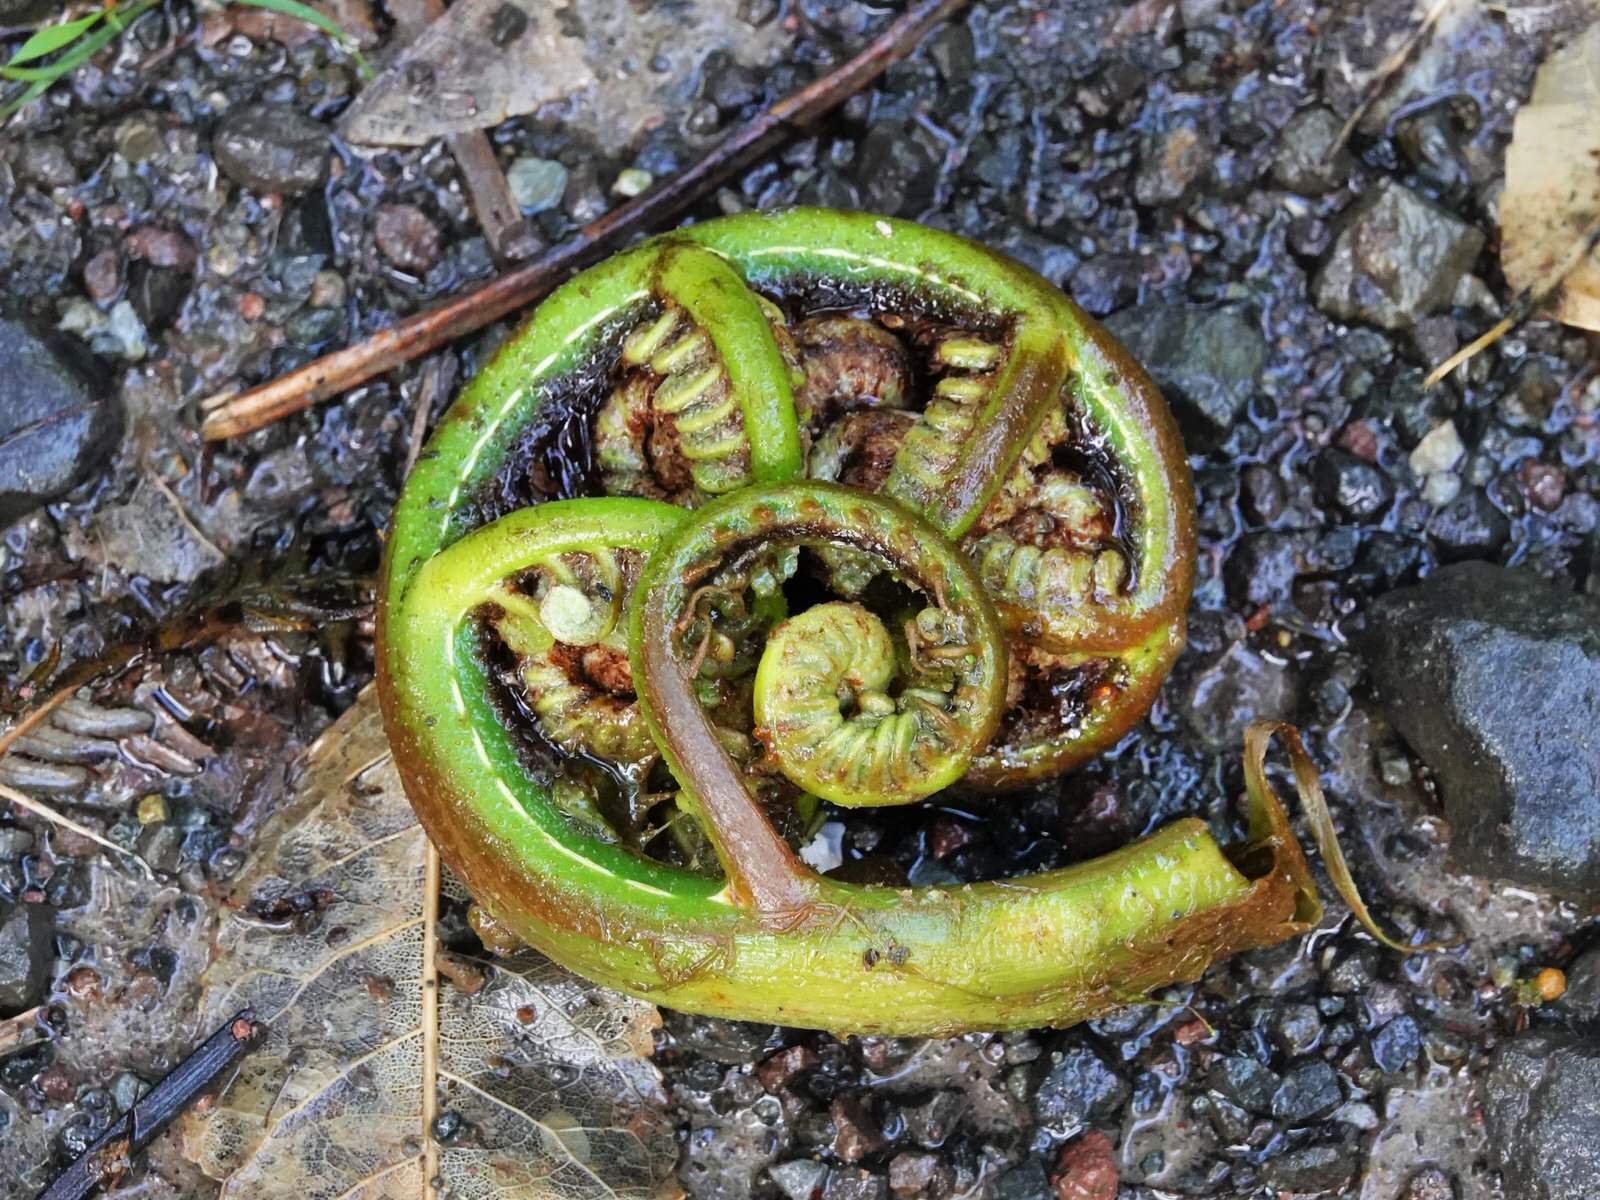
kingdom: Plantae
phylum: Tracheophyta
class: Polypodiopsida
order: Cyatheales
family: Cyatheaceae
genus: Sphaeropteris
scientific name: Sphaeropteris medullaris
